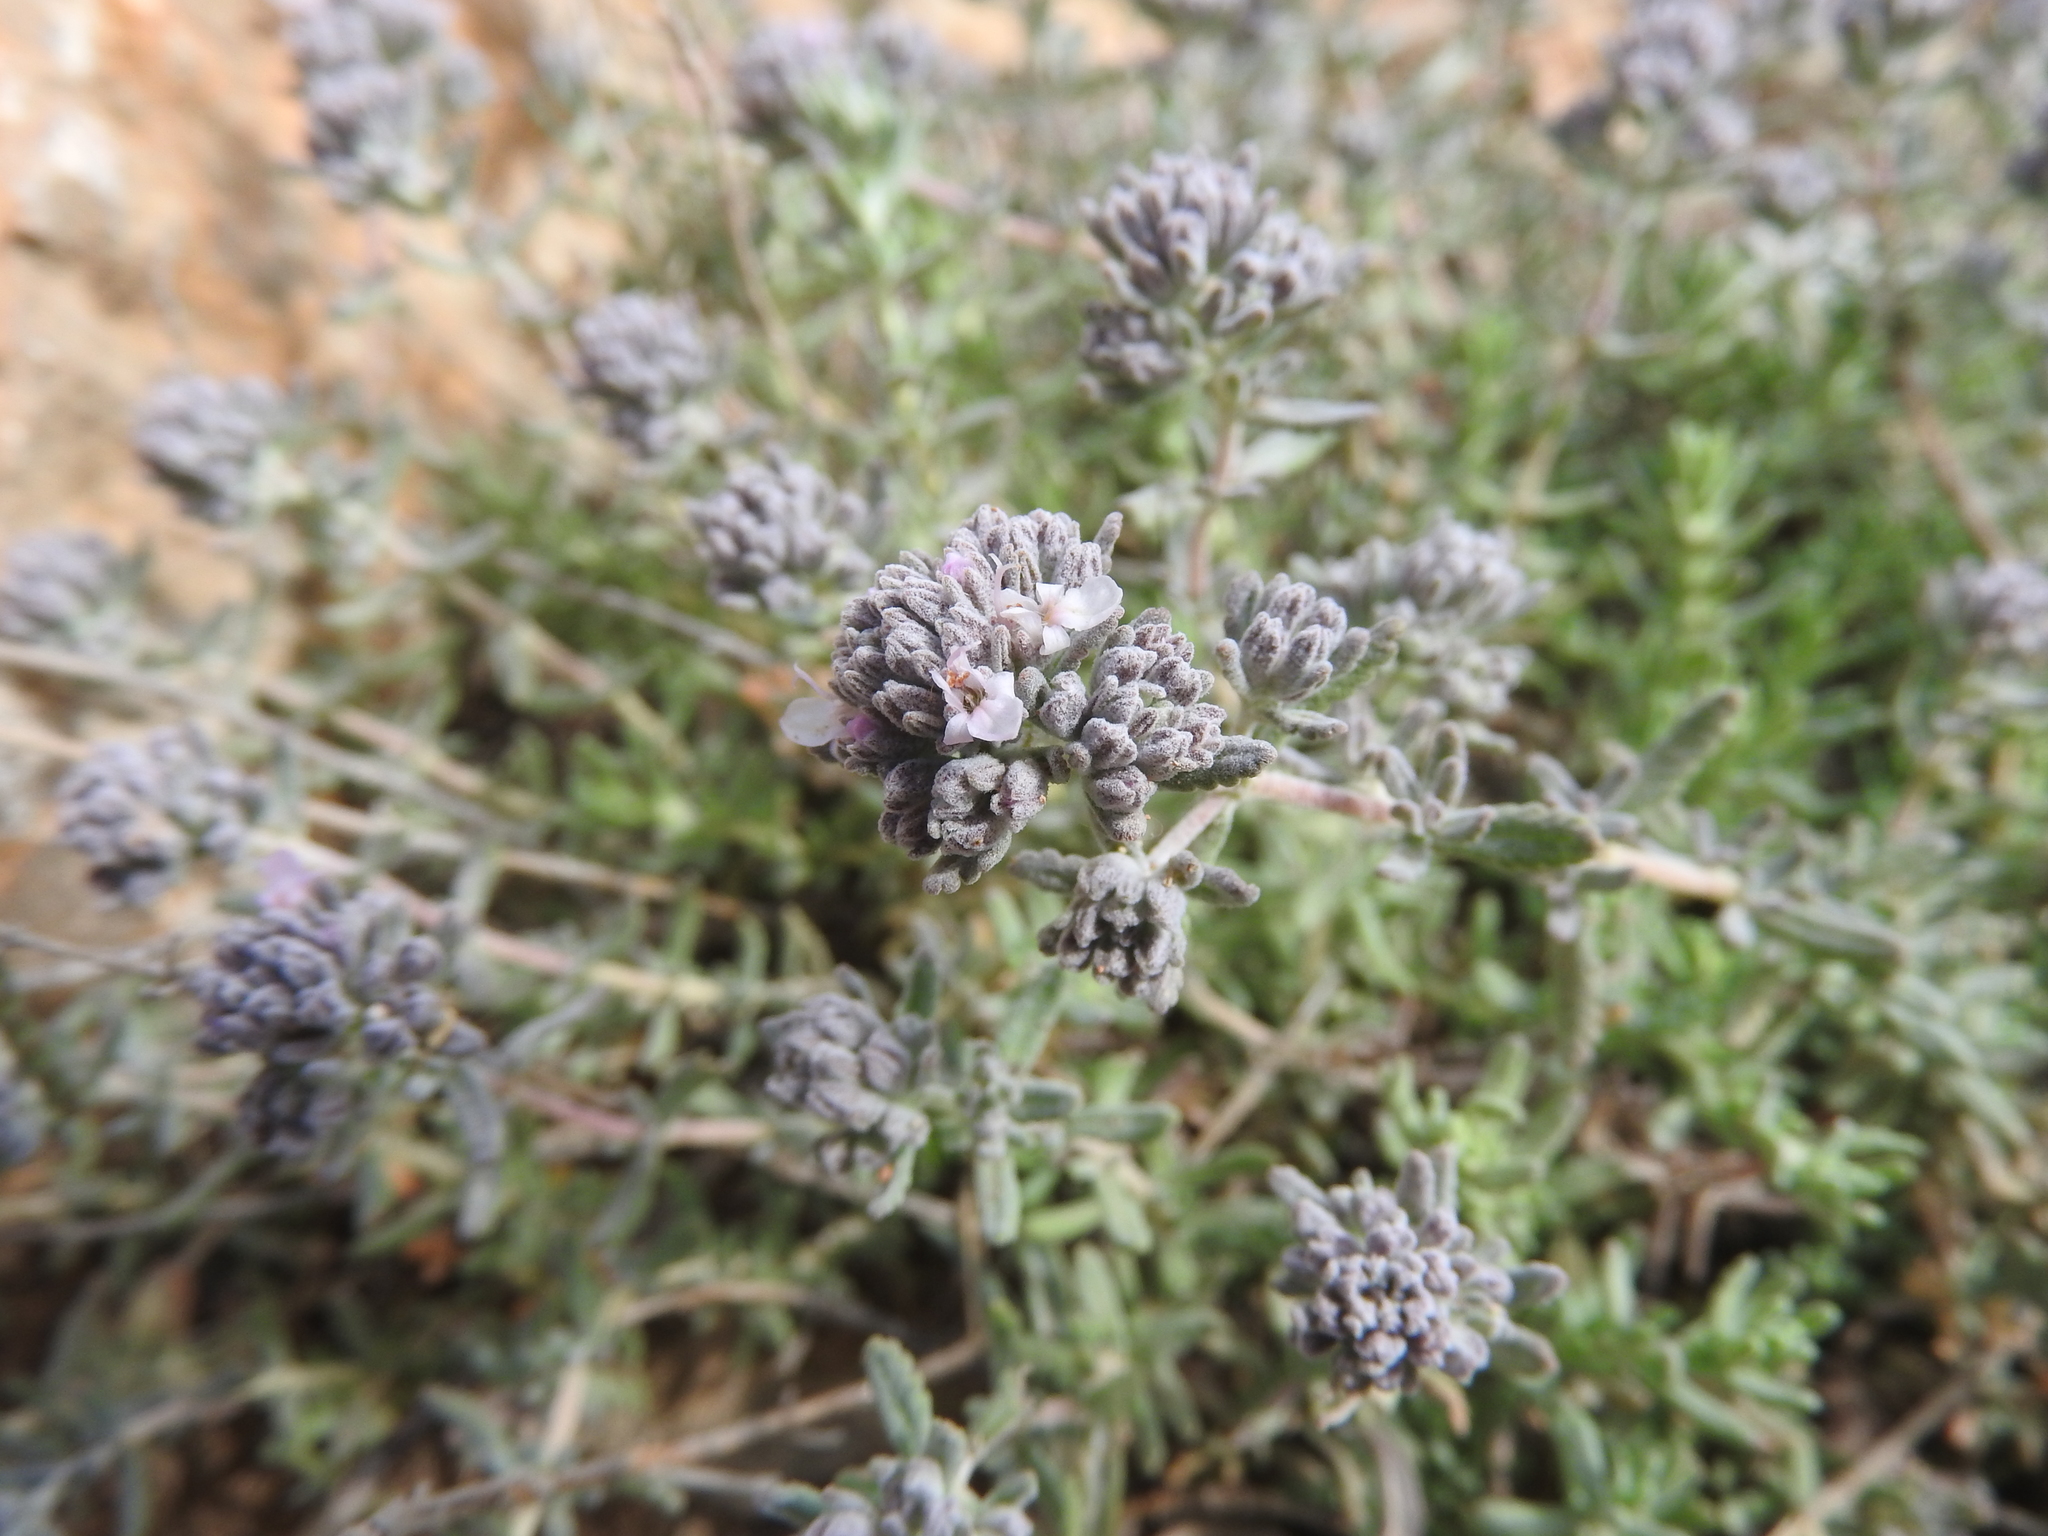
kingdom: Plantae
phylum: Tracheophyta
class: Magnoliopsida
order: Lamiales
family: Lamiaceae
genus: Teucrium
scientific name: Teucrium capitatum
